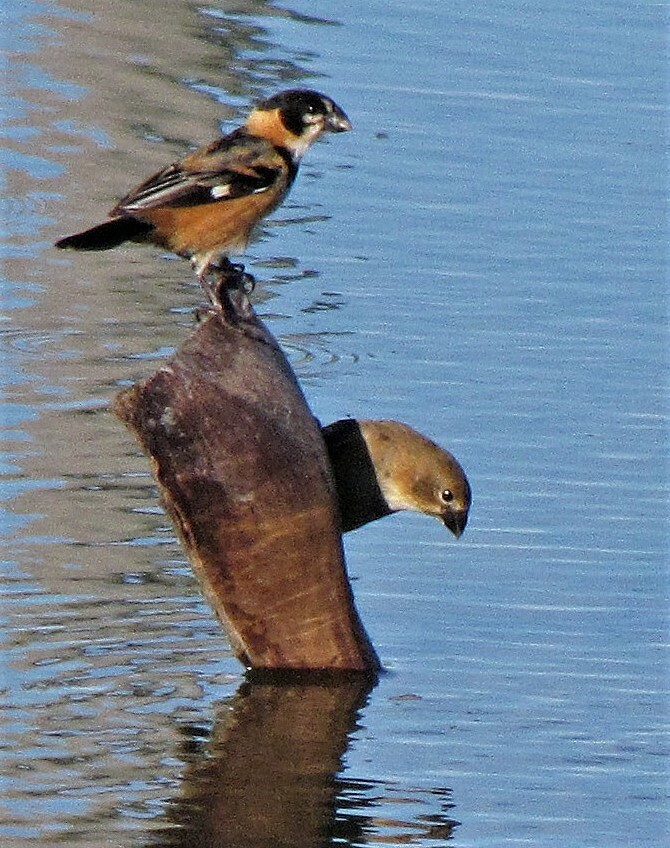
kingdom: Animalia
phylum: Chordata
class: Aves
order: Passeriformes
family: Thraupidae
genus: Sporophila
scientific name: Sporophila collaris
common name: Rusty-collared seedeater
